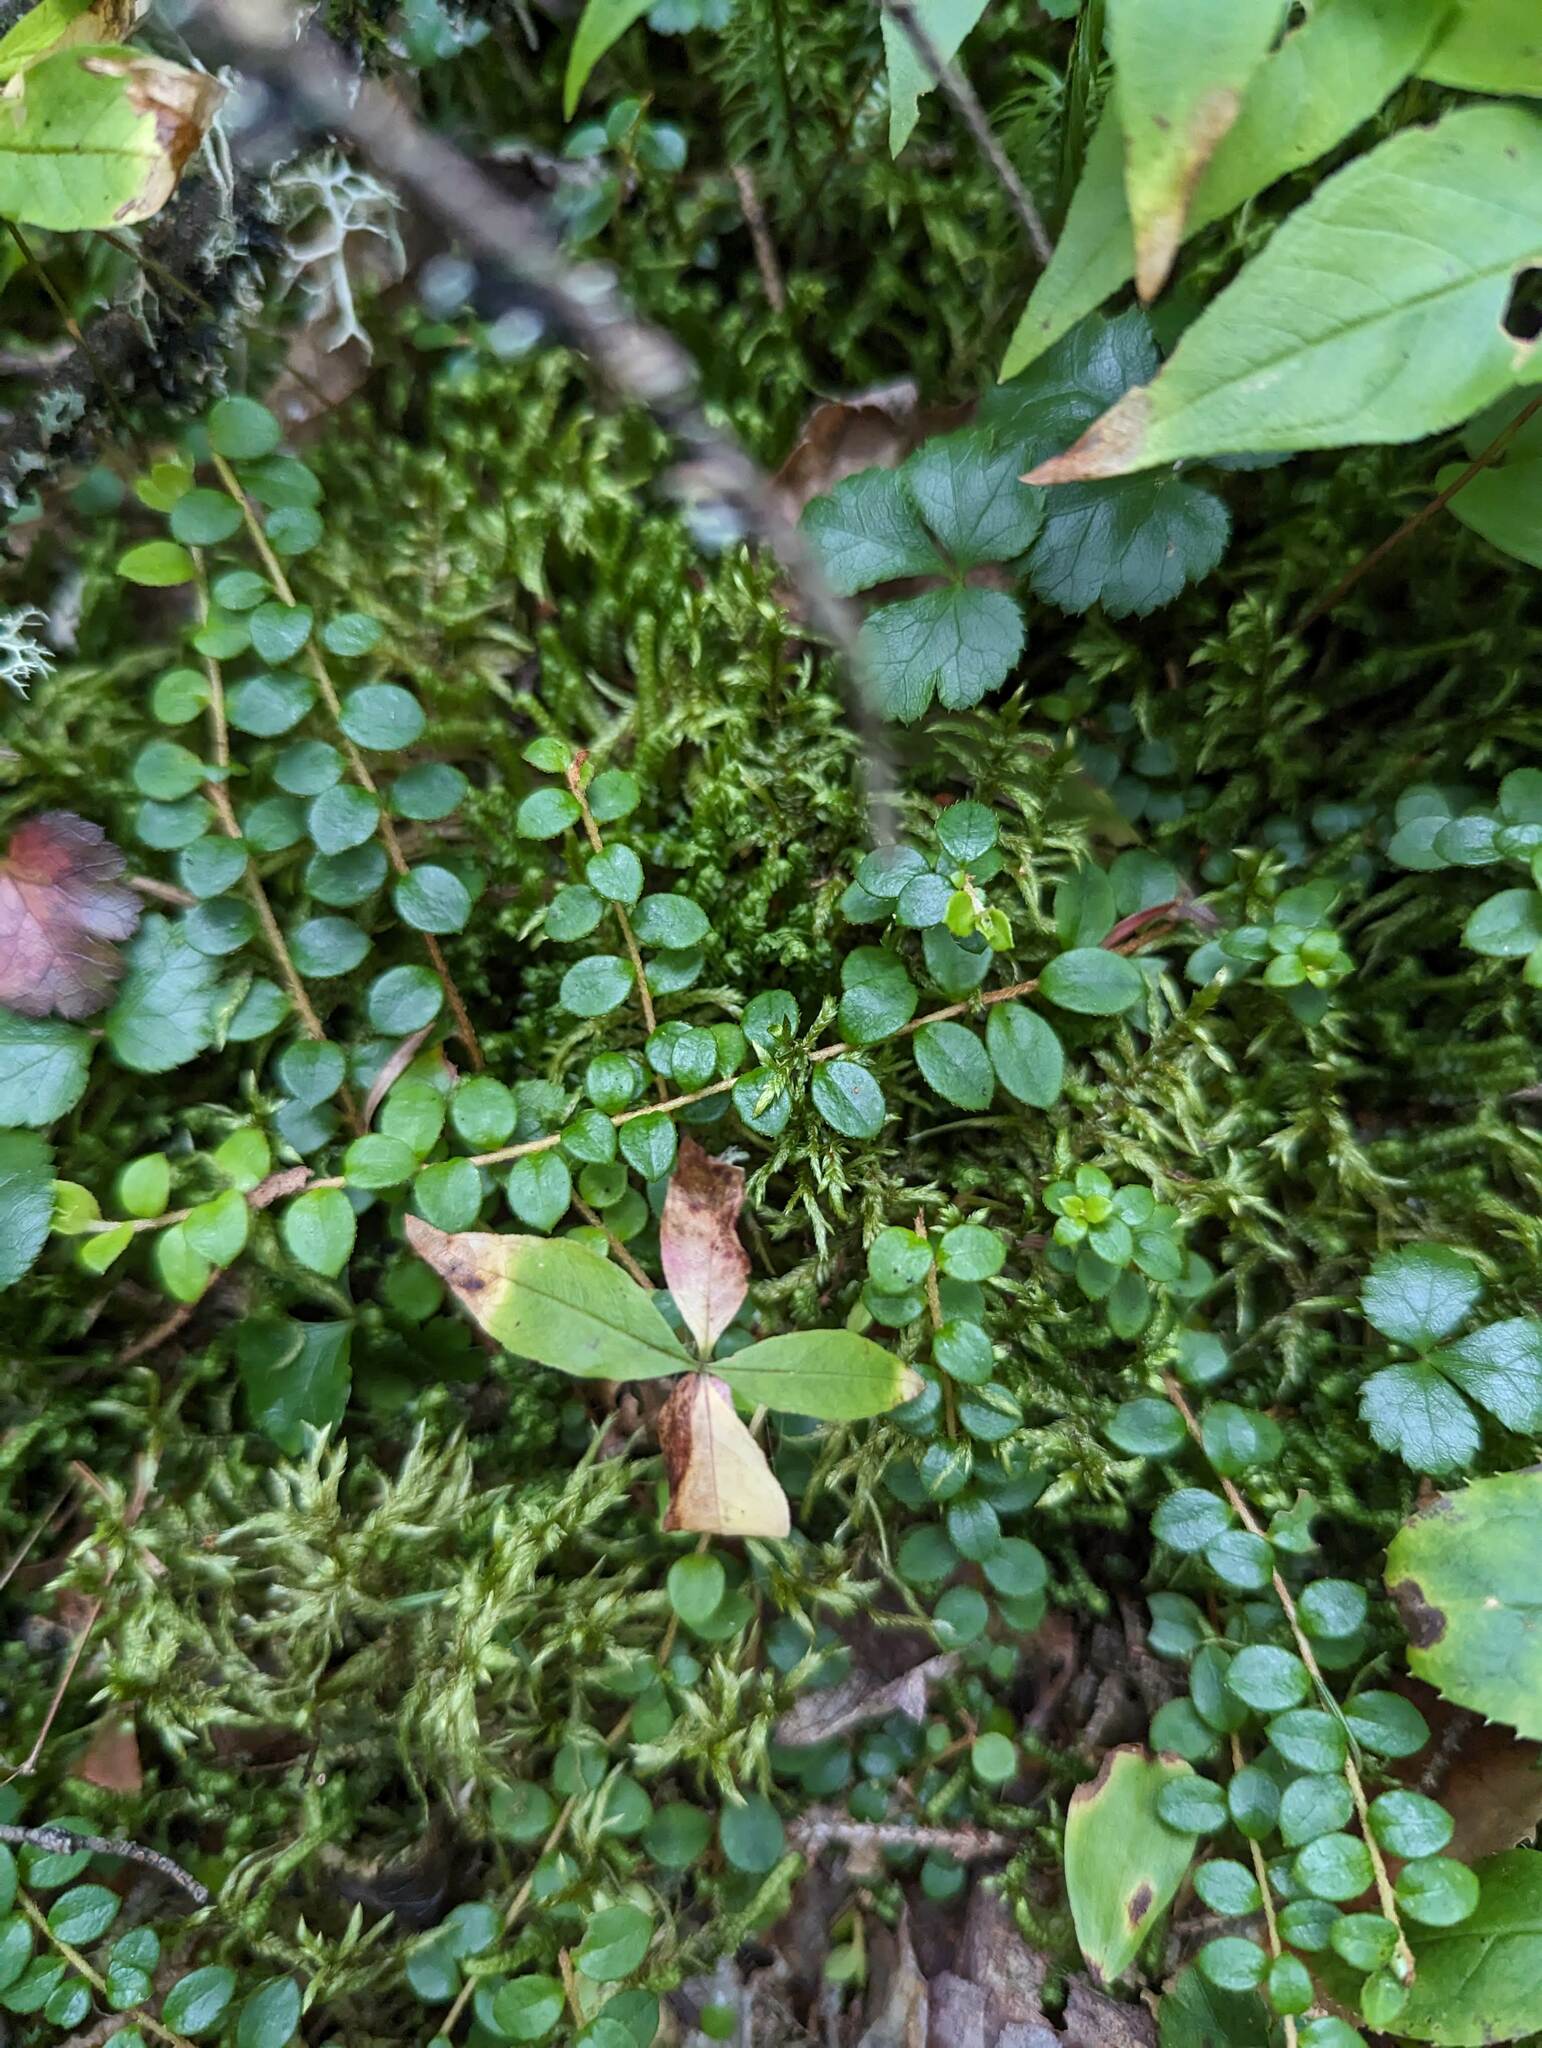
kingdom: Plantae
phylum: Tracheophyta
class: Magnoliopsida
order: Ericales
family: Ericaceae
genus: Gaultheria
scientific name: Gaultheria hispidula
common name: Cancer wintergreen
